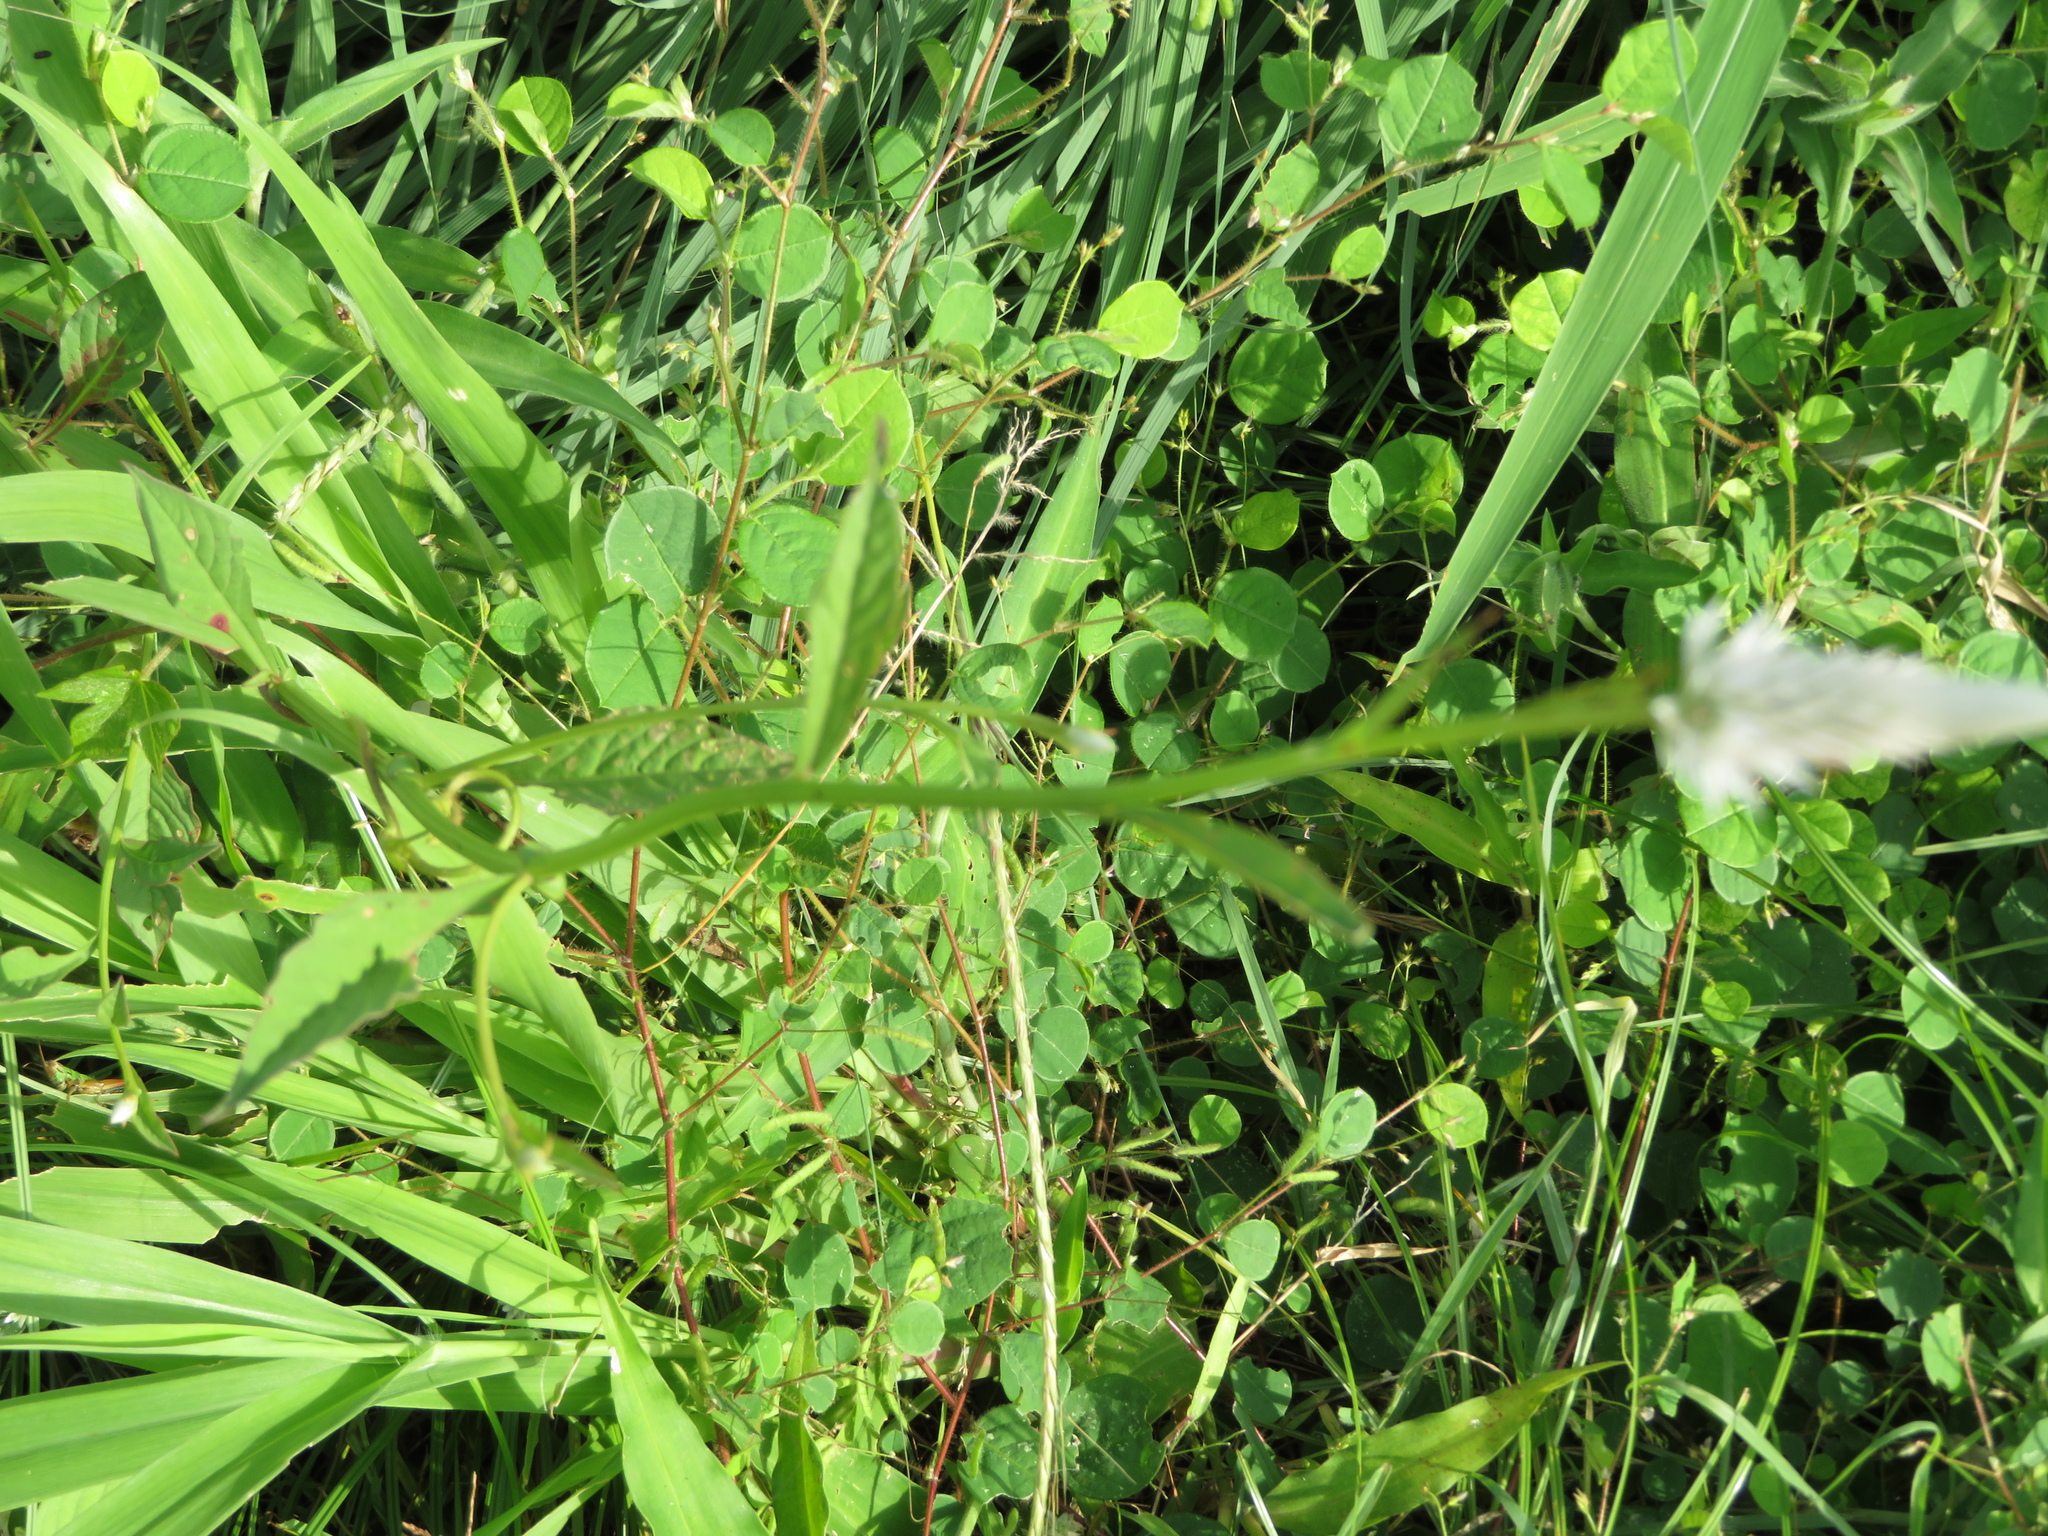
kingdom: Plantae
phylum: Tracheophyta
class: Magnoliopsida
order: Caryophyllales
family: Amaranthaceae
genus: Celosia
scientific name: Celosia argentea
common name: Feather cockscomb
